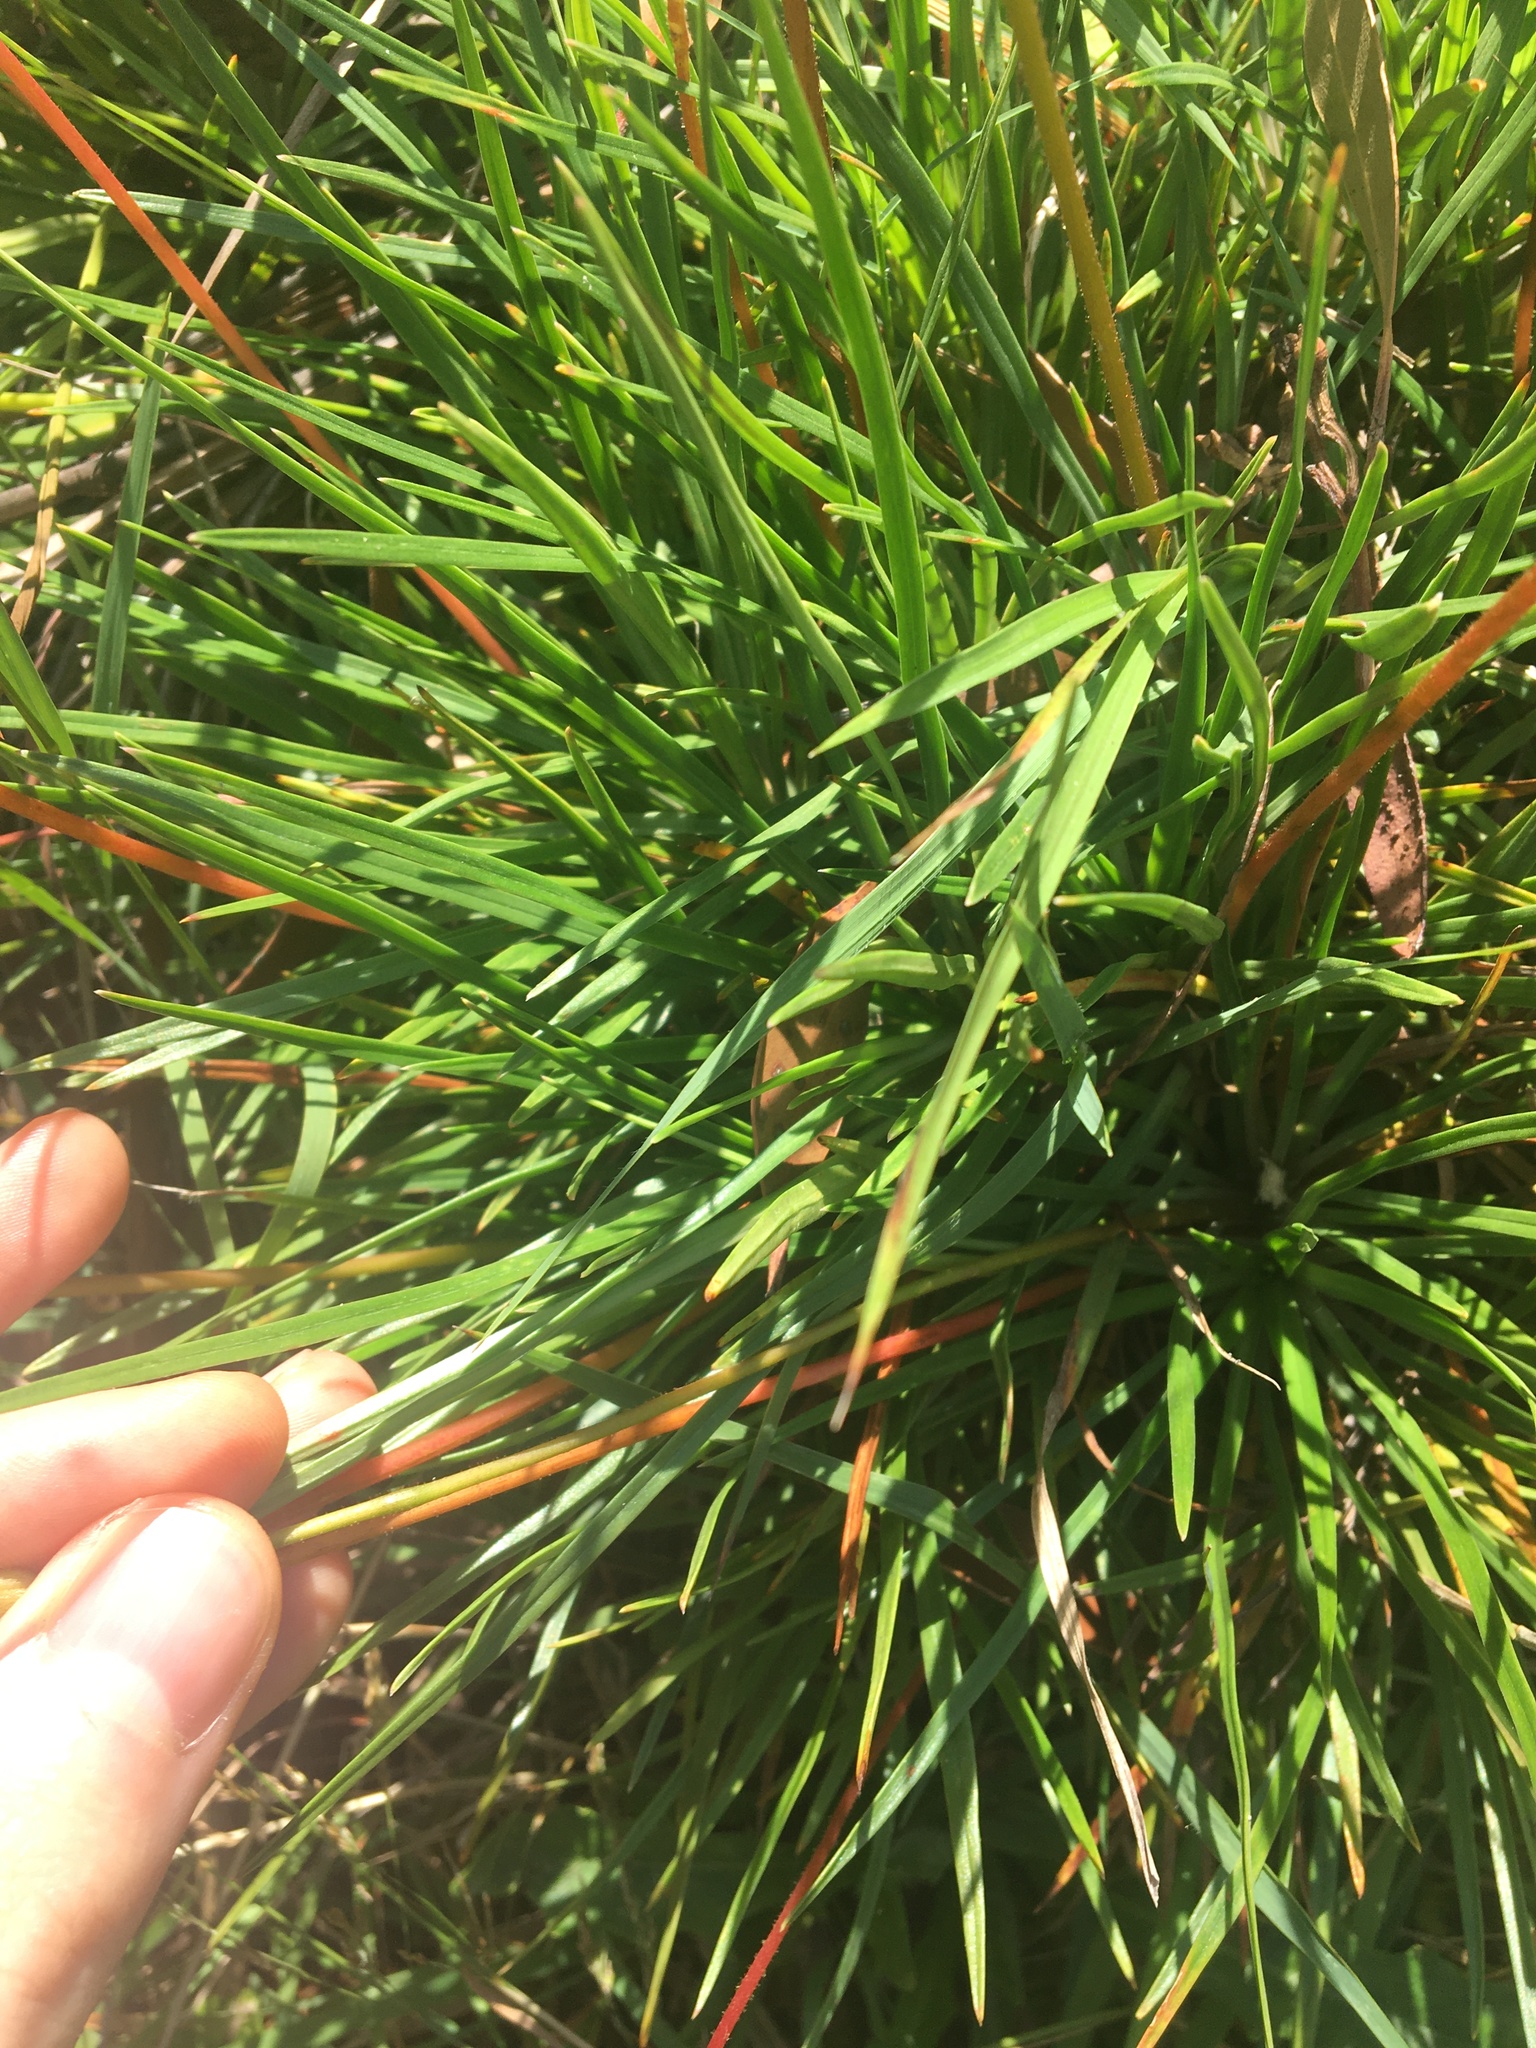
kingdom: Plantae
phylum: Tracheophyta
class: Magnoliopsida
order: Asterales
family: Stylidiaceae
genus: Stylidium
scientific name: Stylidium graminifolium
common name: Grass triggerplant
